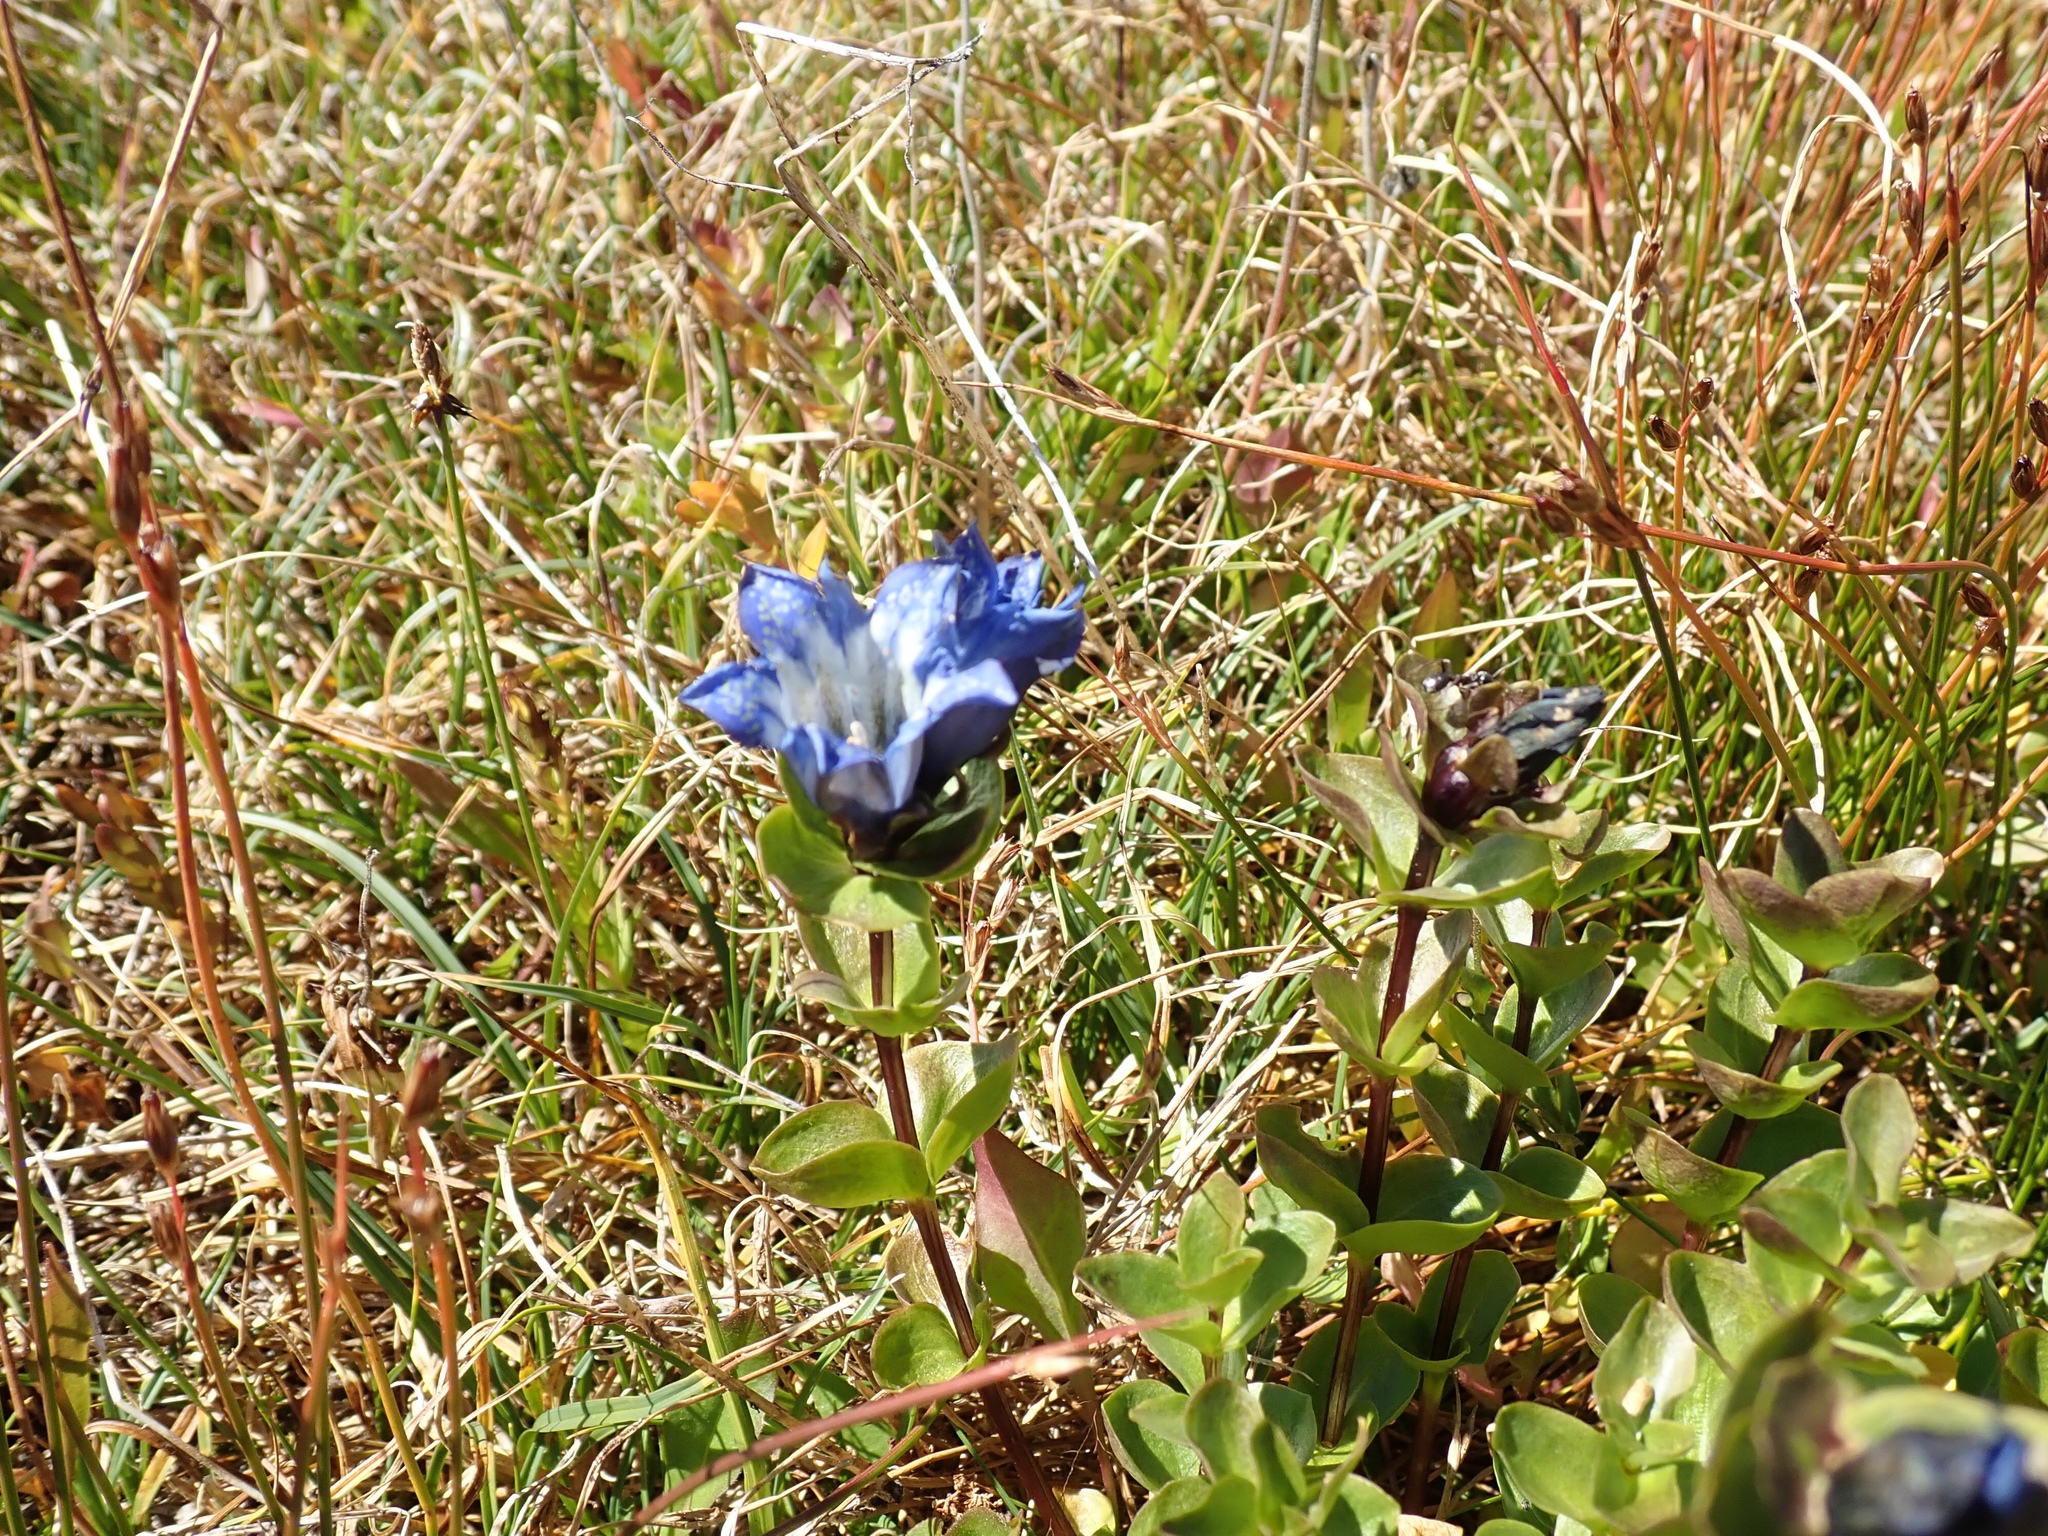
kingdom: Plantae
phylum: Tracheophyta
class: Magnoliopsida
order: Gentianales
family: Gentianaceae
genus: Gentiana
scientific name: Gentiana calycosa
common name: Rainier pleated gentian
